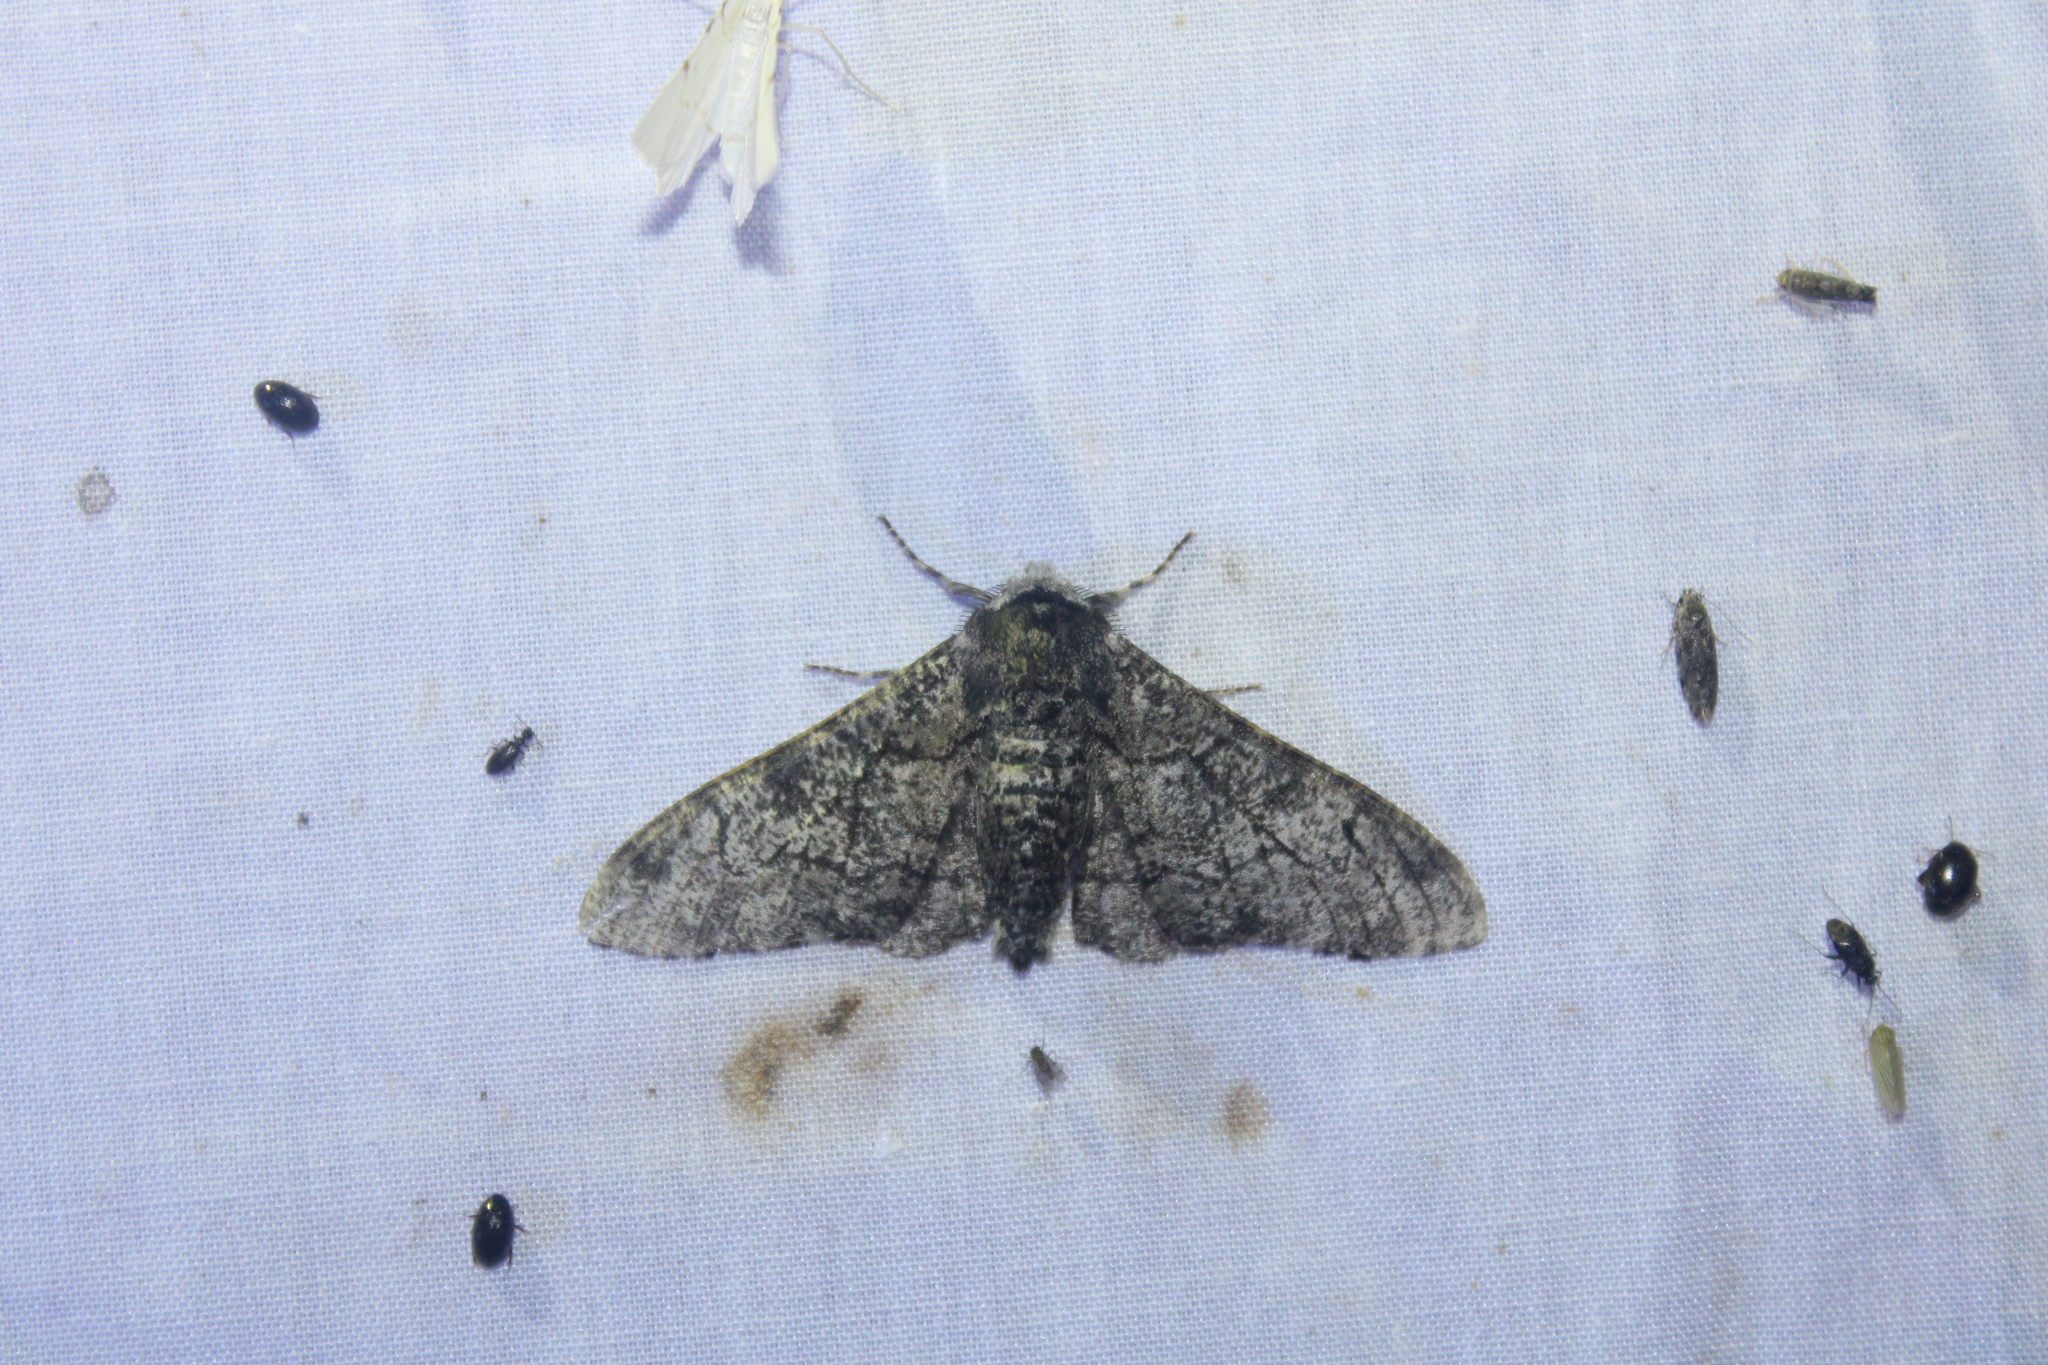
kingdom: Animalia
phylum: Arthropoda
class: Insecta
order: Lepidoptera
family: Geometridae
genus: Biston
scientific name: Biston betularia
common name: Peppered moth
